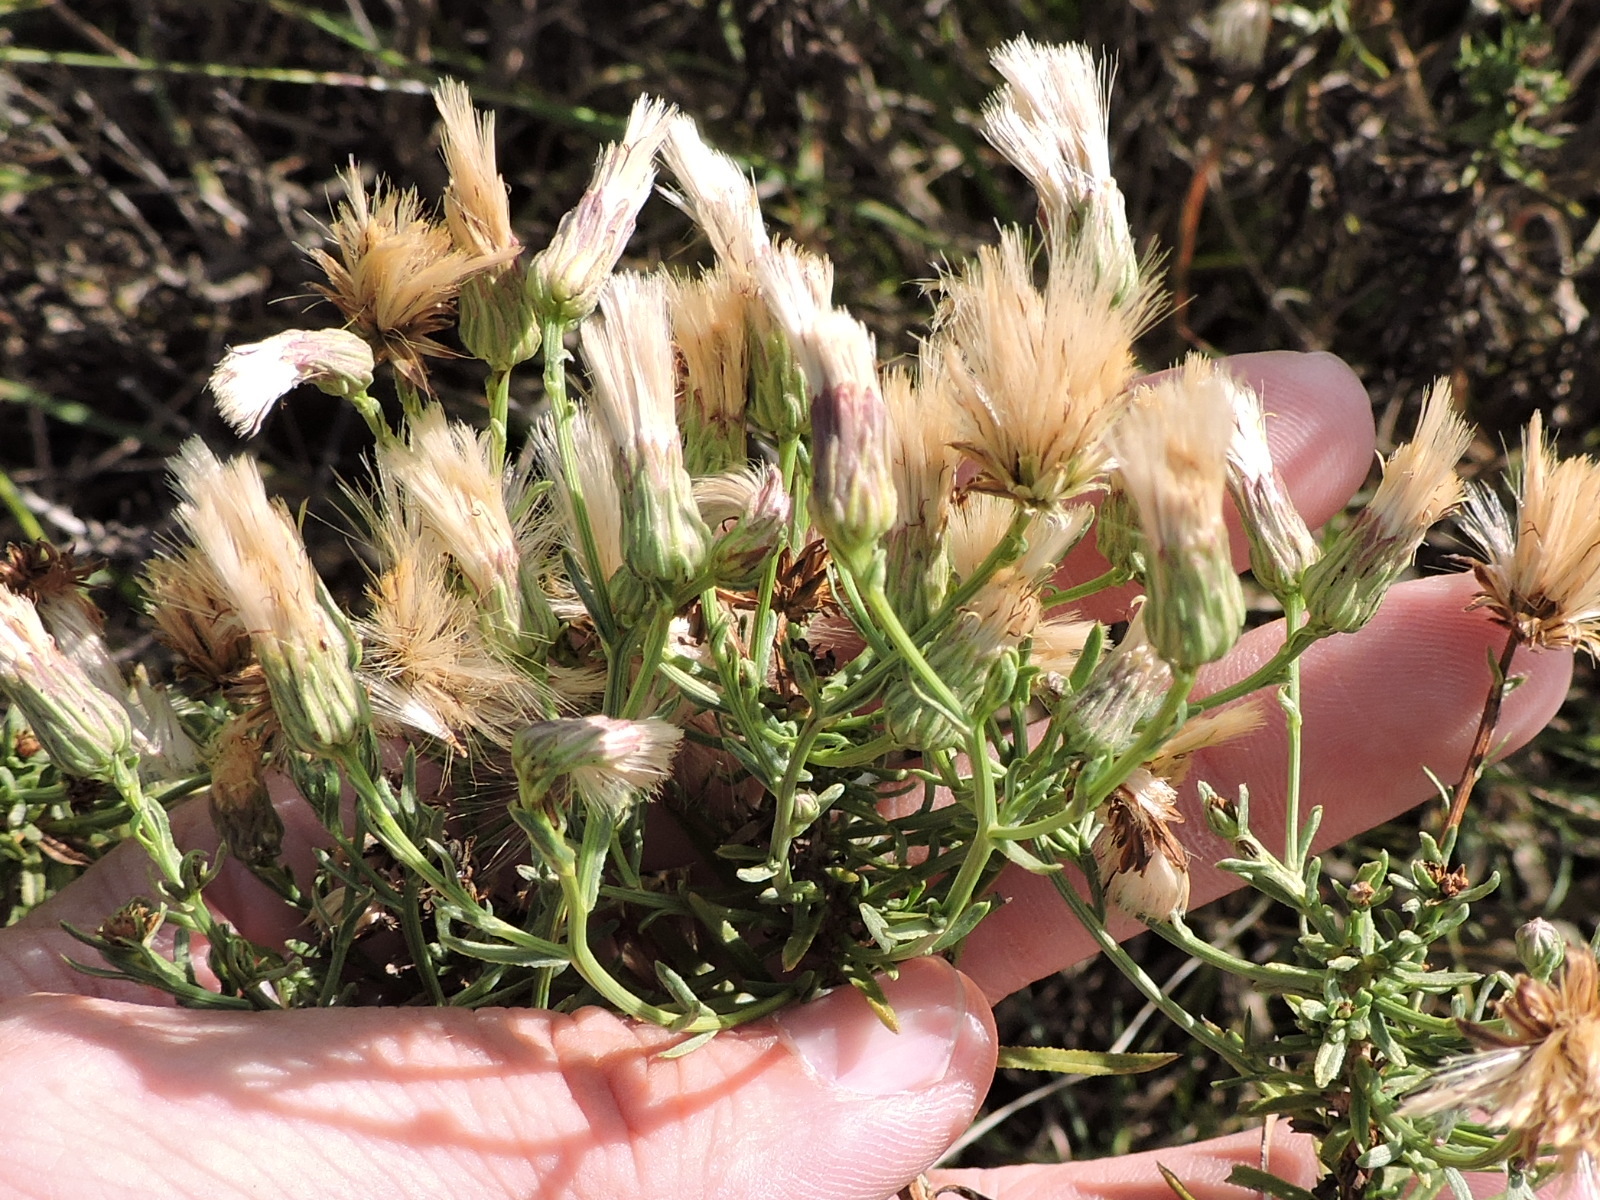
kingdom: Plantae
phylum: Tracheophyta
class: Magnoliopsida
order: Asterales
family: Asteraceae
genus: Baccharis
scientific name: Baccharis texana
